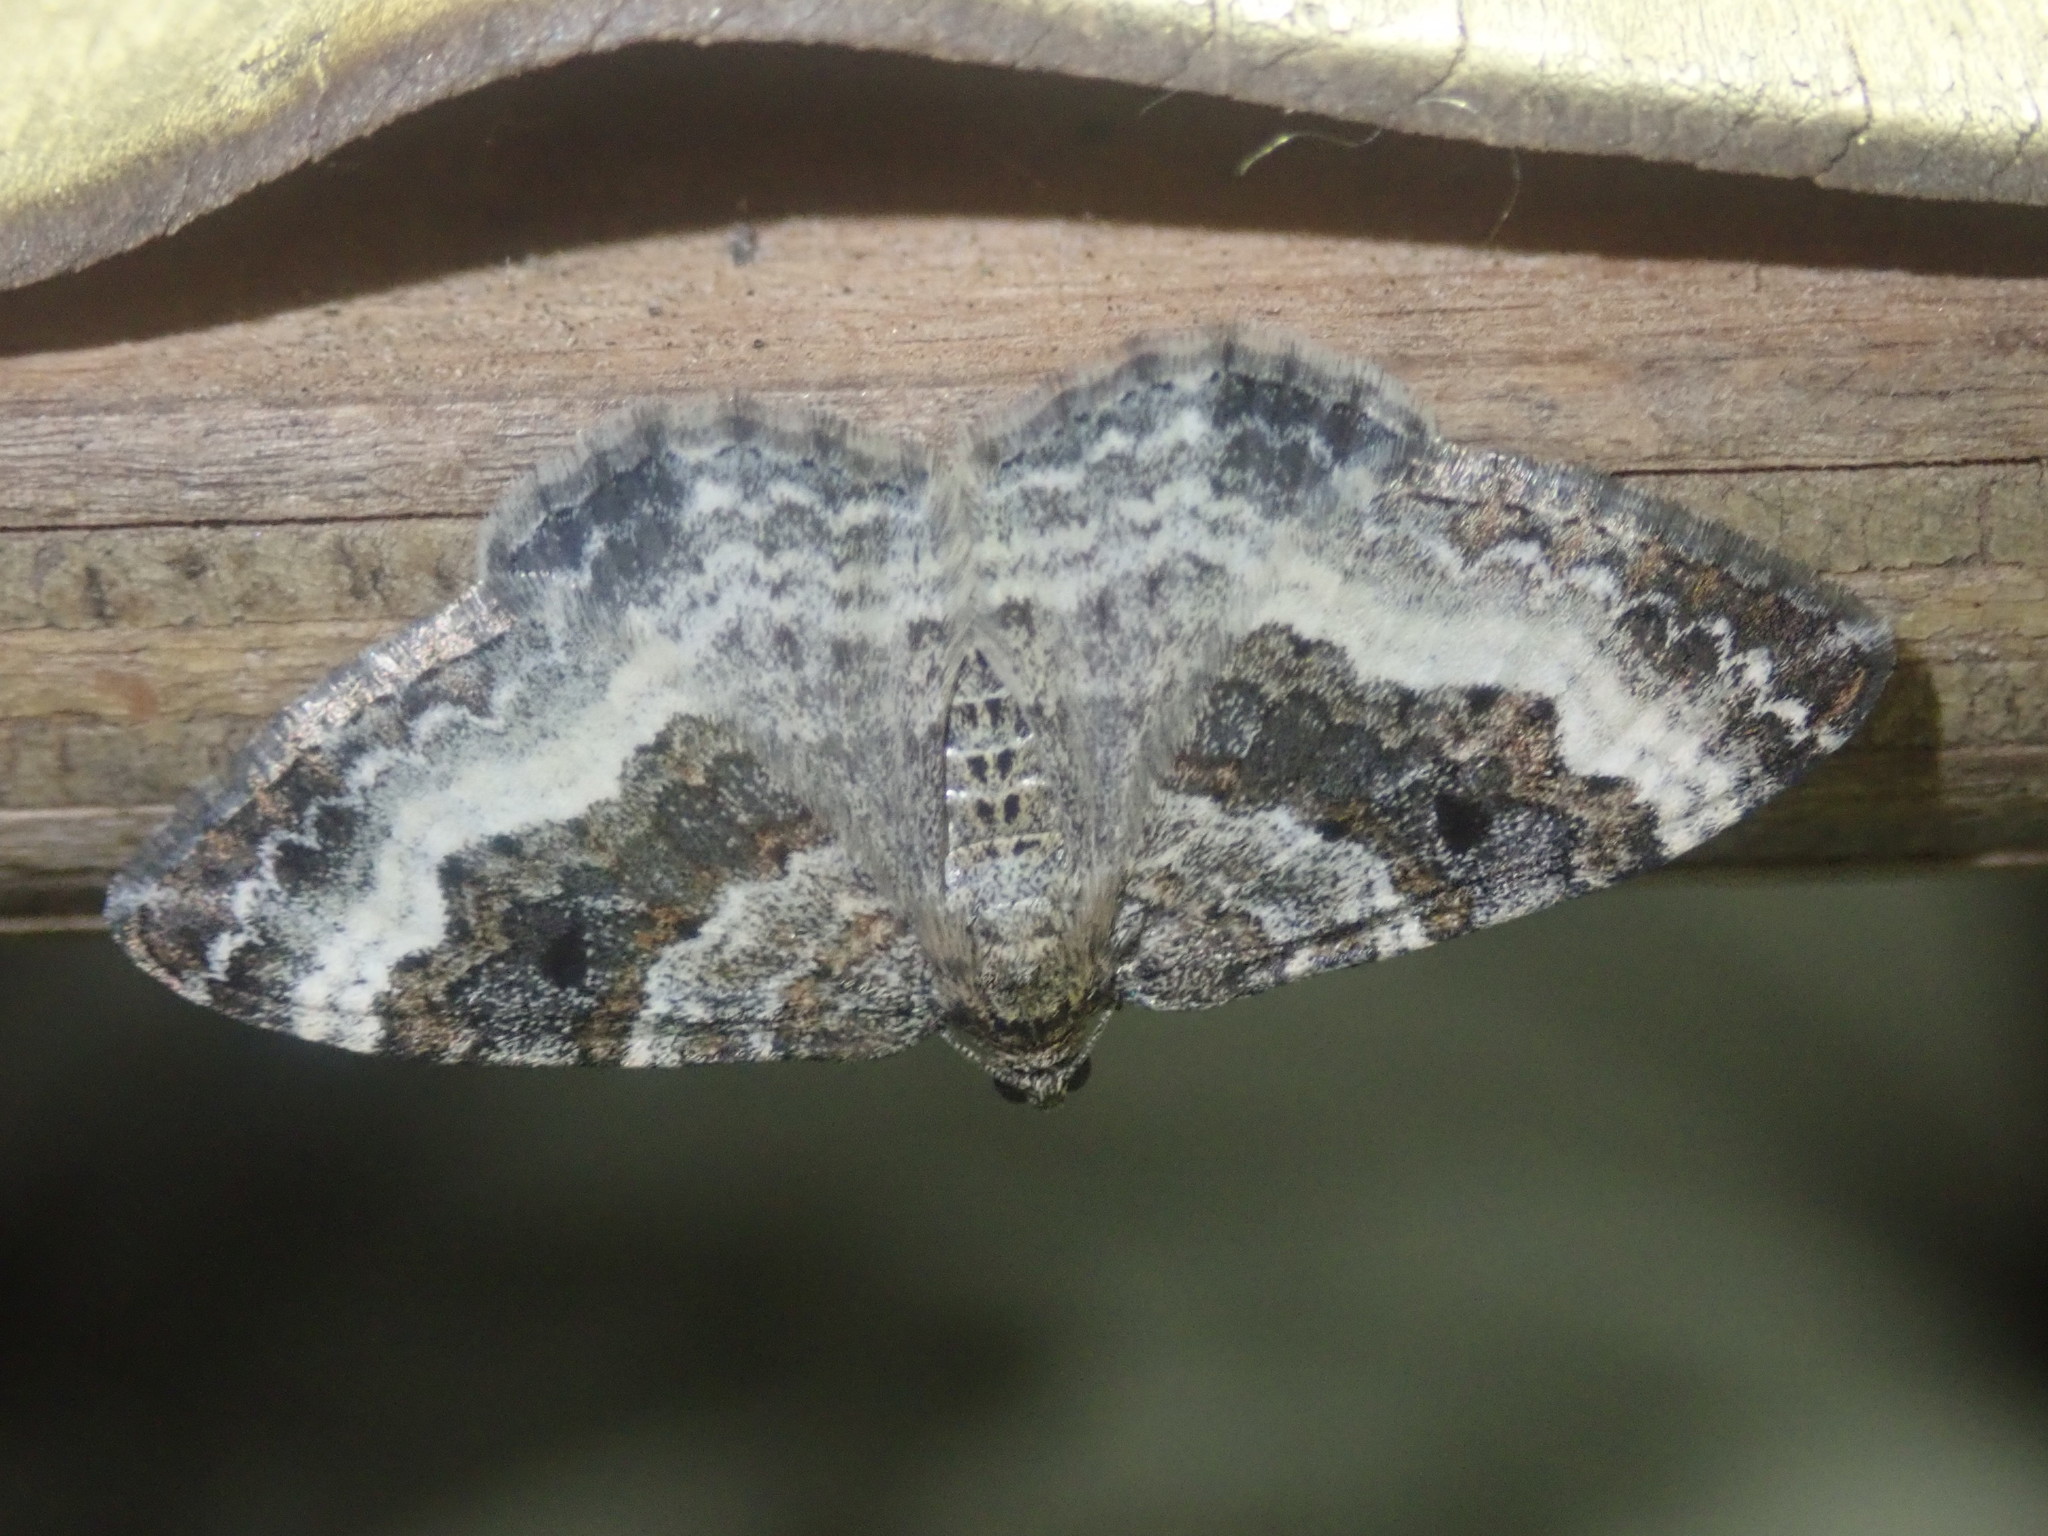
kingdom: Animalia
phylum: Arthropoda
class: Insecta
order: Lepidoptera
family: Geometridae
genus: Epirrhoe
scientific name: Epirrhoe alternata
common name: Common carpet
